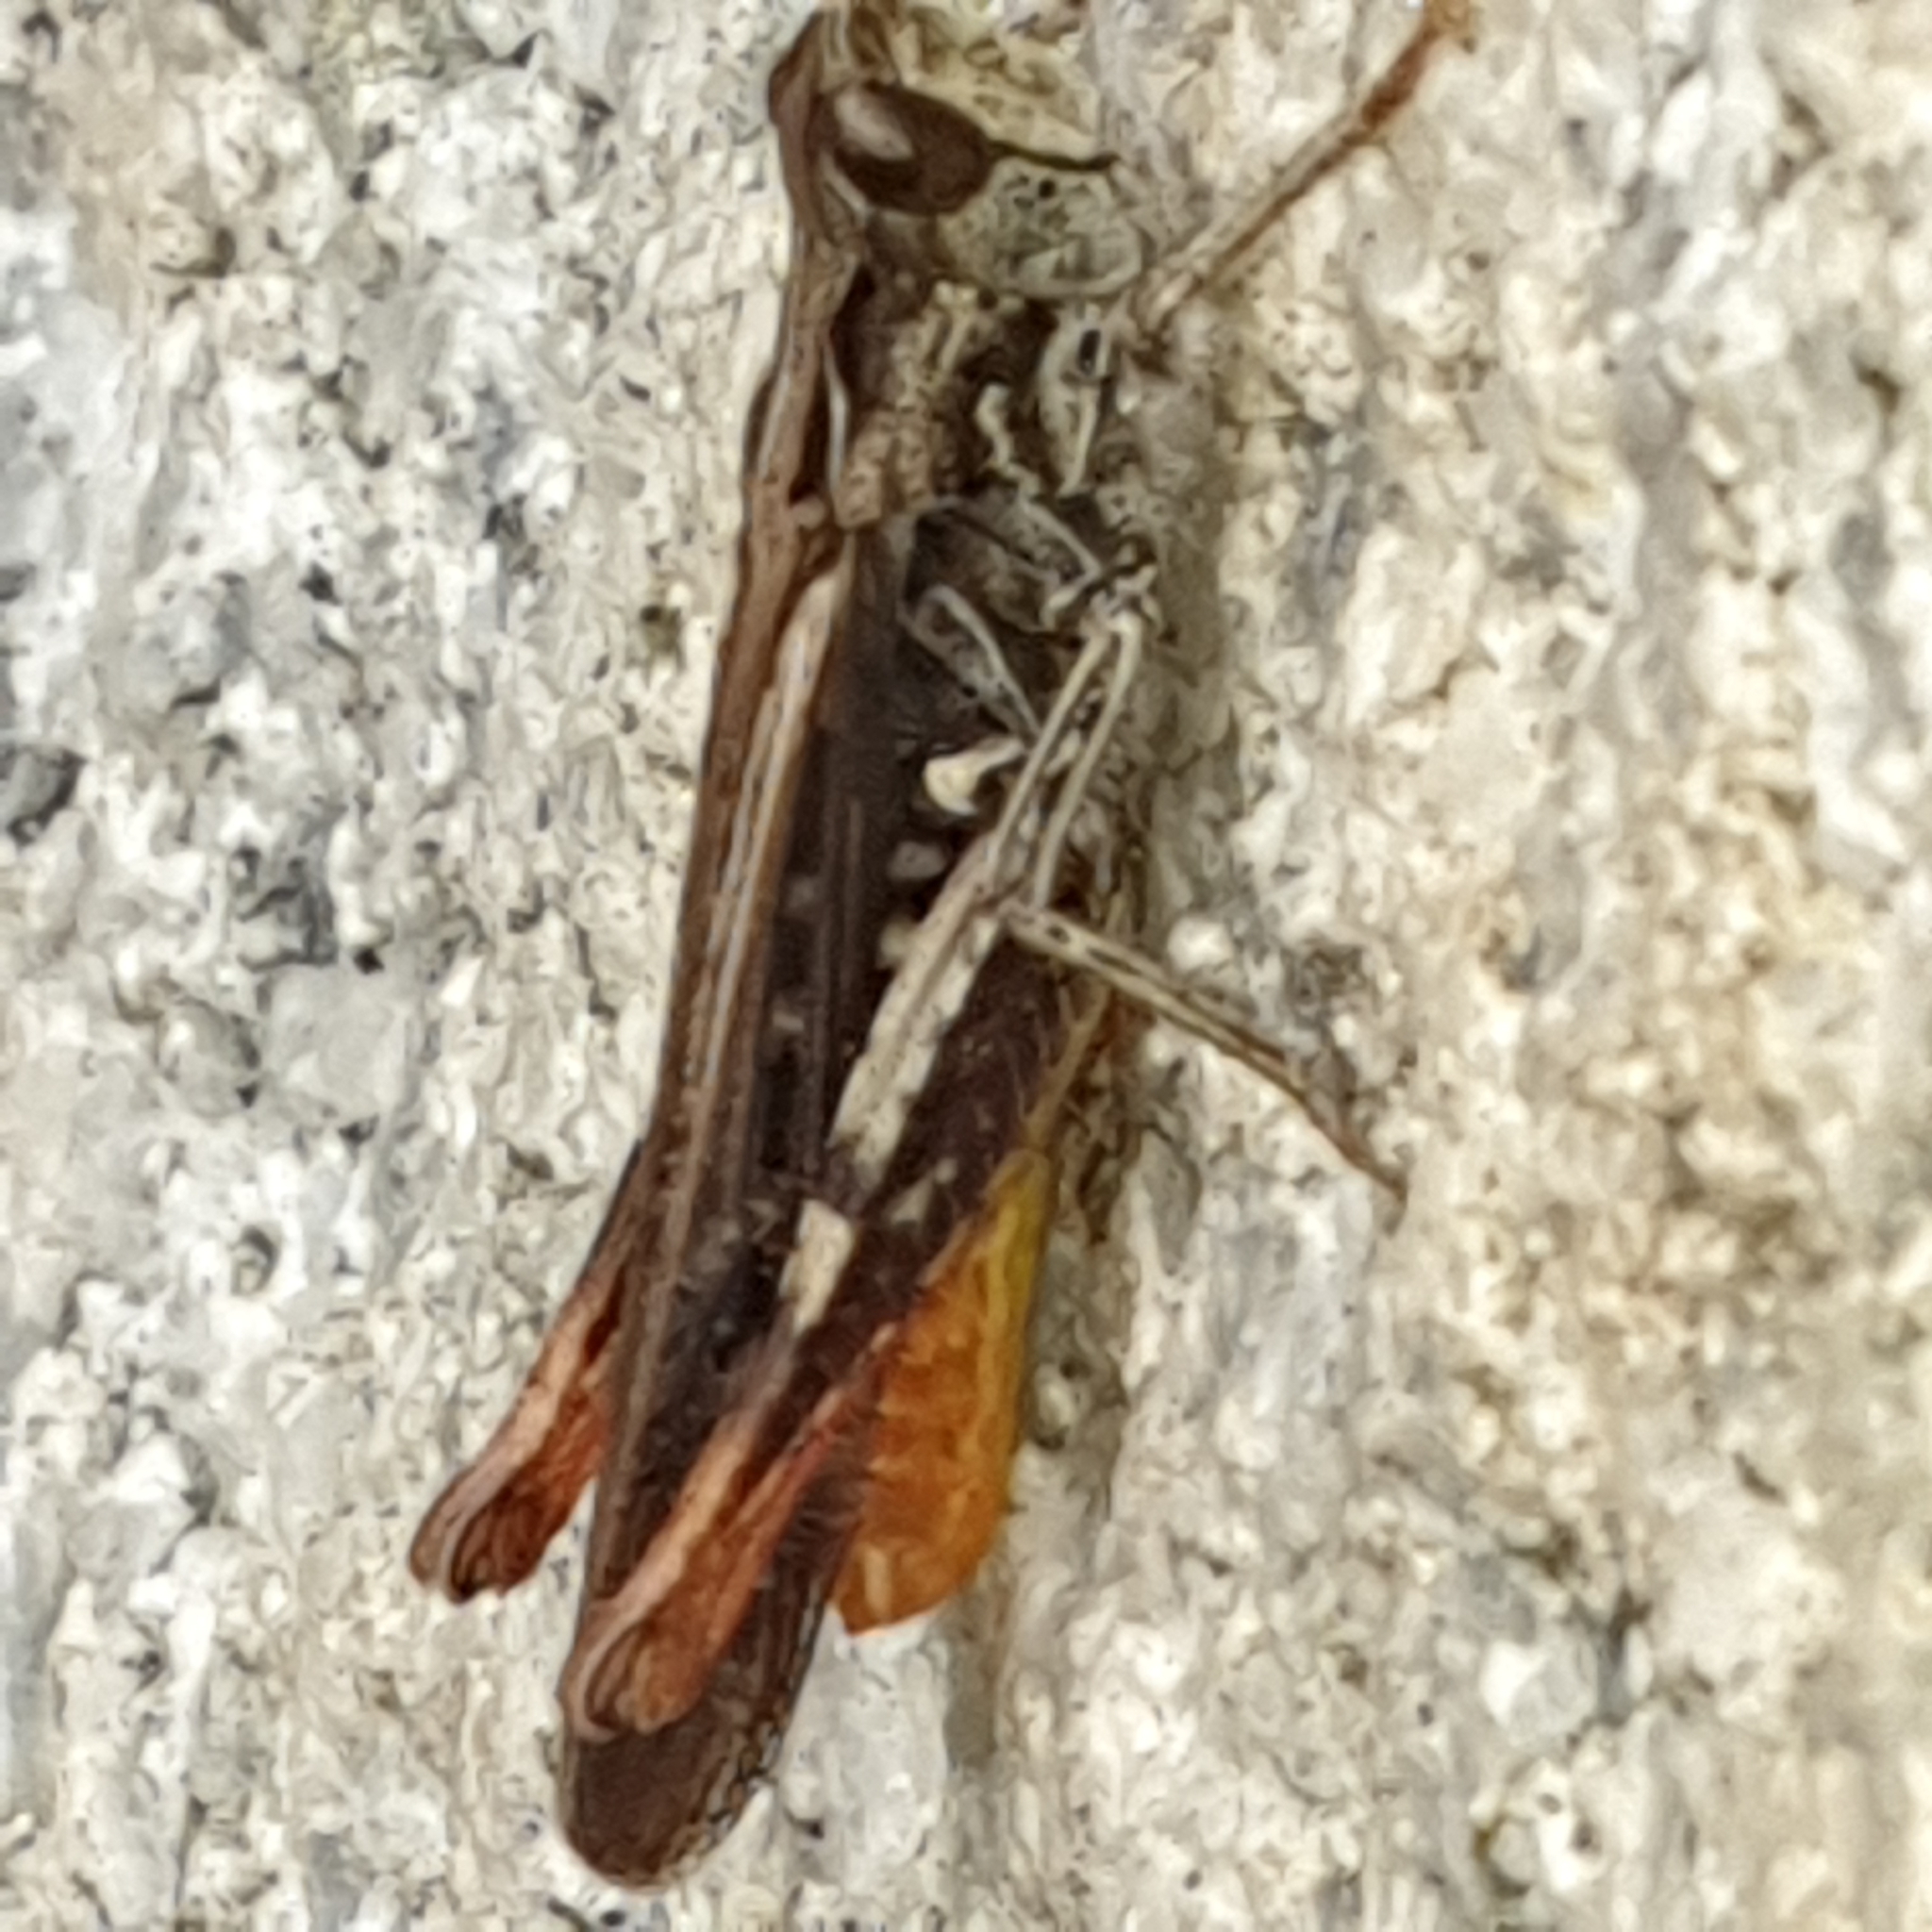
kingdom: Animalia
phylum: Arthropoda
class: Insecta
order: Orthoptera
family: Acrididae
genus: Chorthippus
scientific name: Chorthippus brunneus
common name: Field grasshopper
